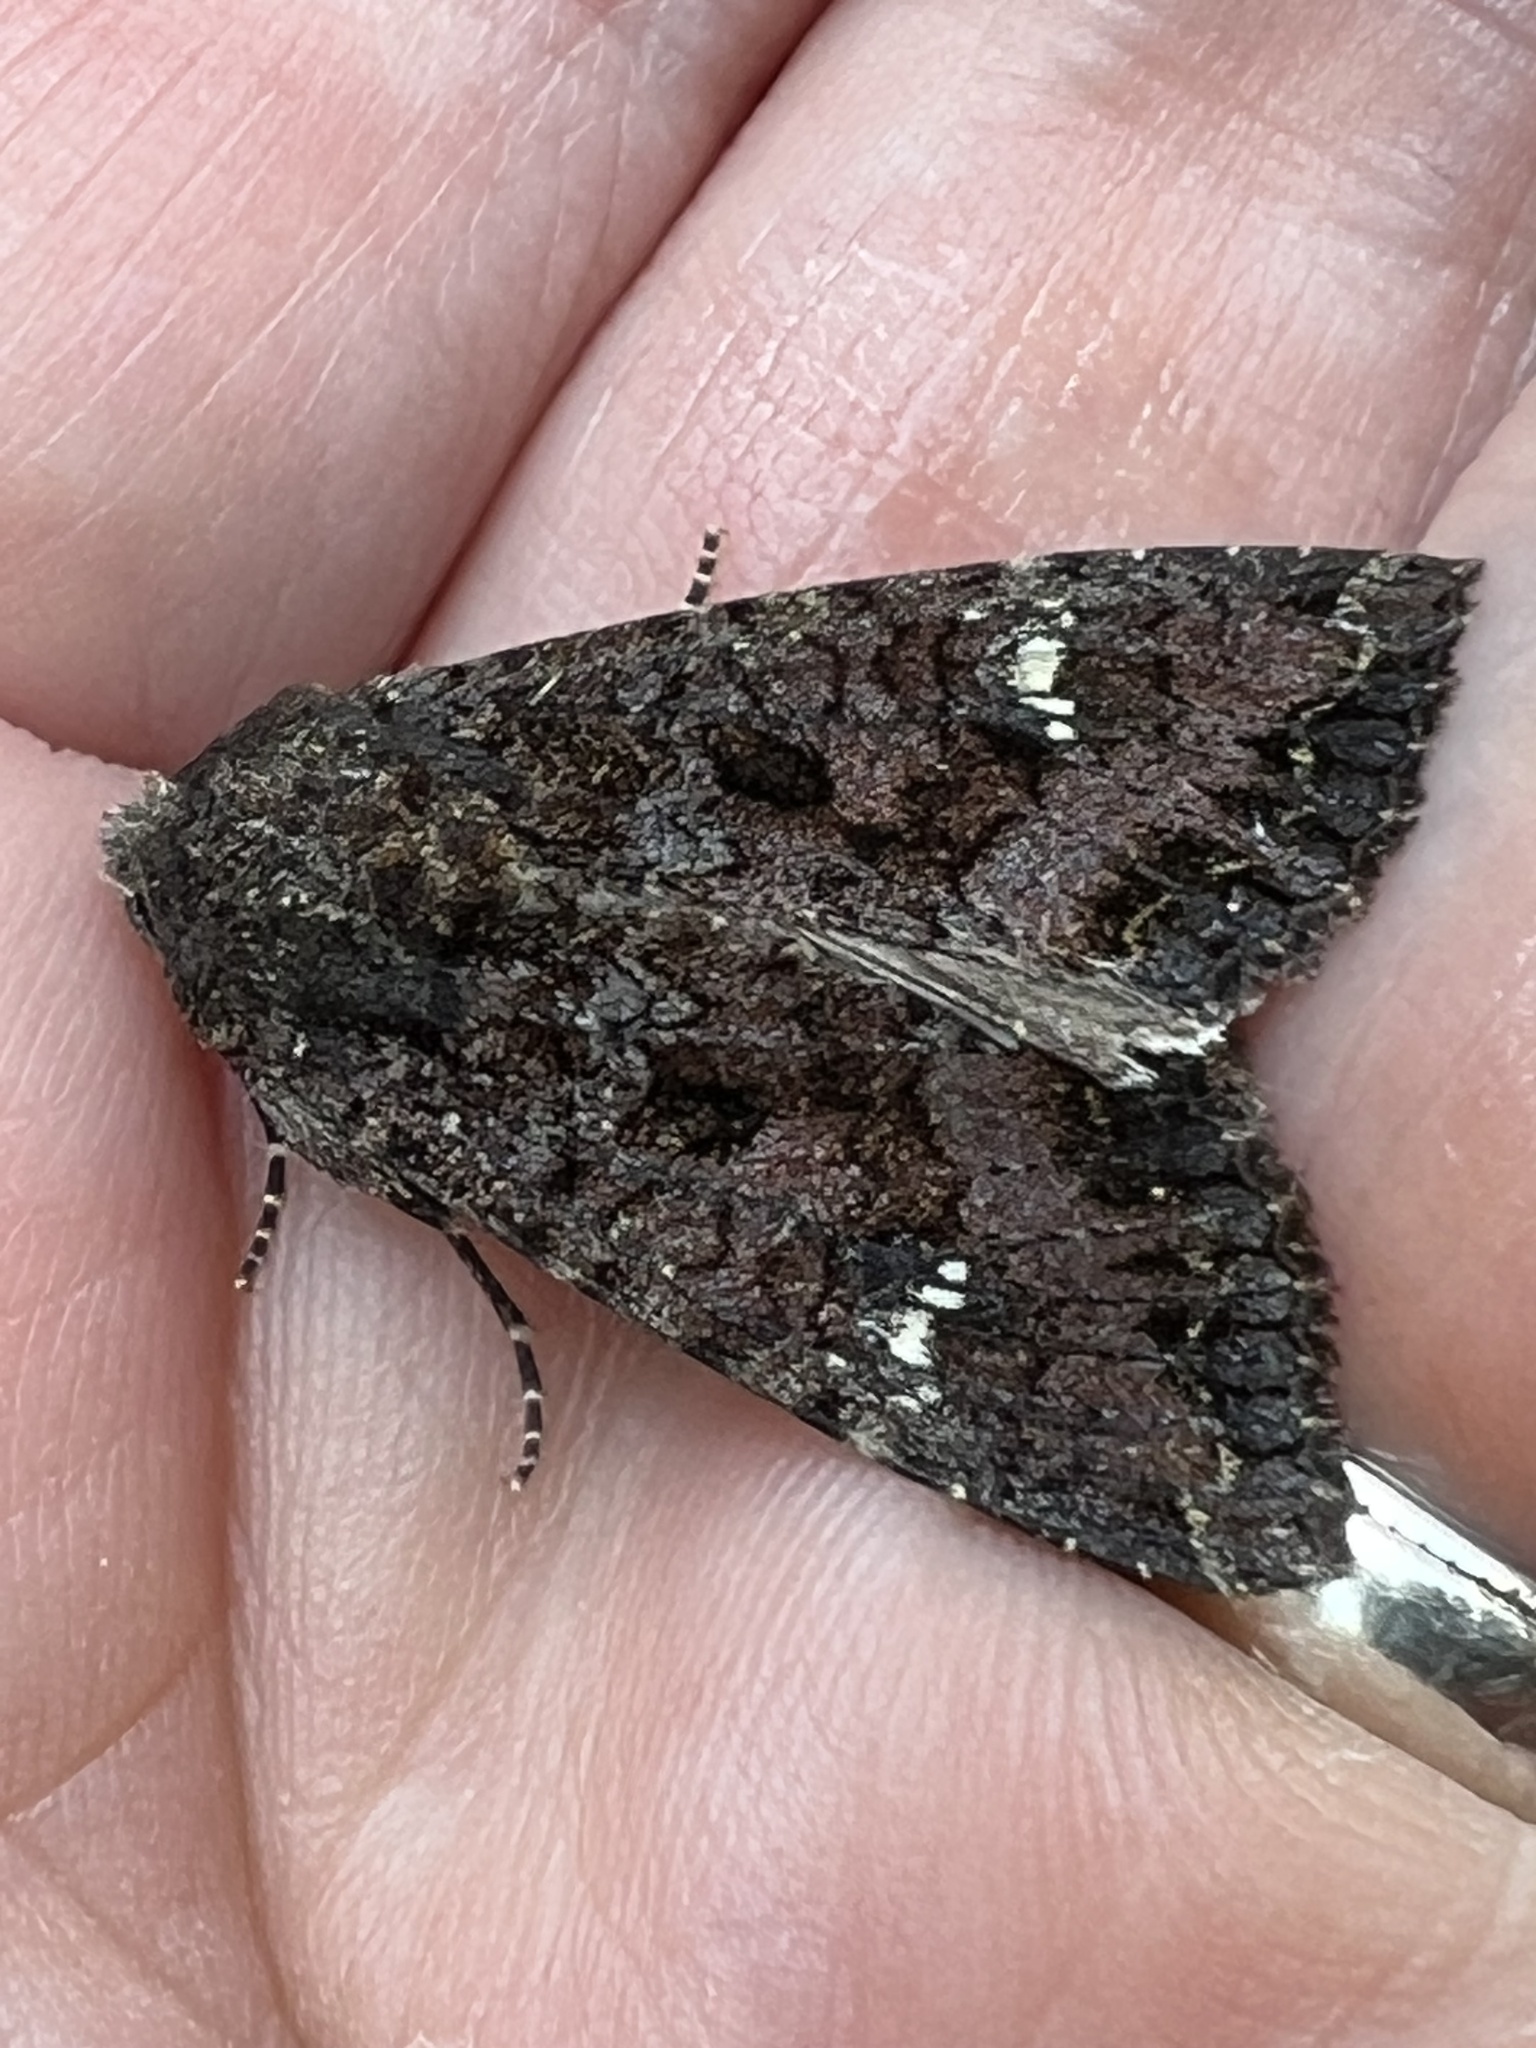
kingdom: Animalia
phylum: Arthropoda
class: Insecta
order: Lepidoptera
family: Noctuidae
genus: Apamea
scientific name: Apamea amputatrix
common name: Yellow-headed cutworm moth
